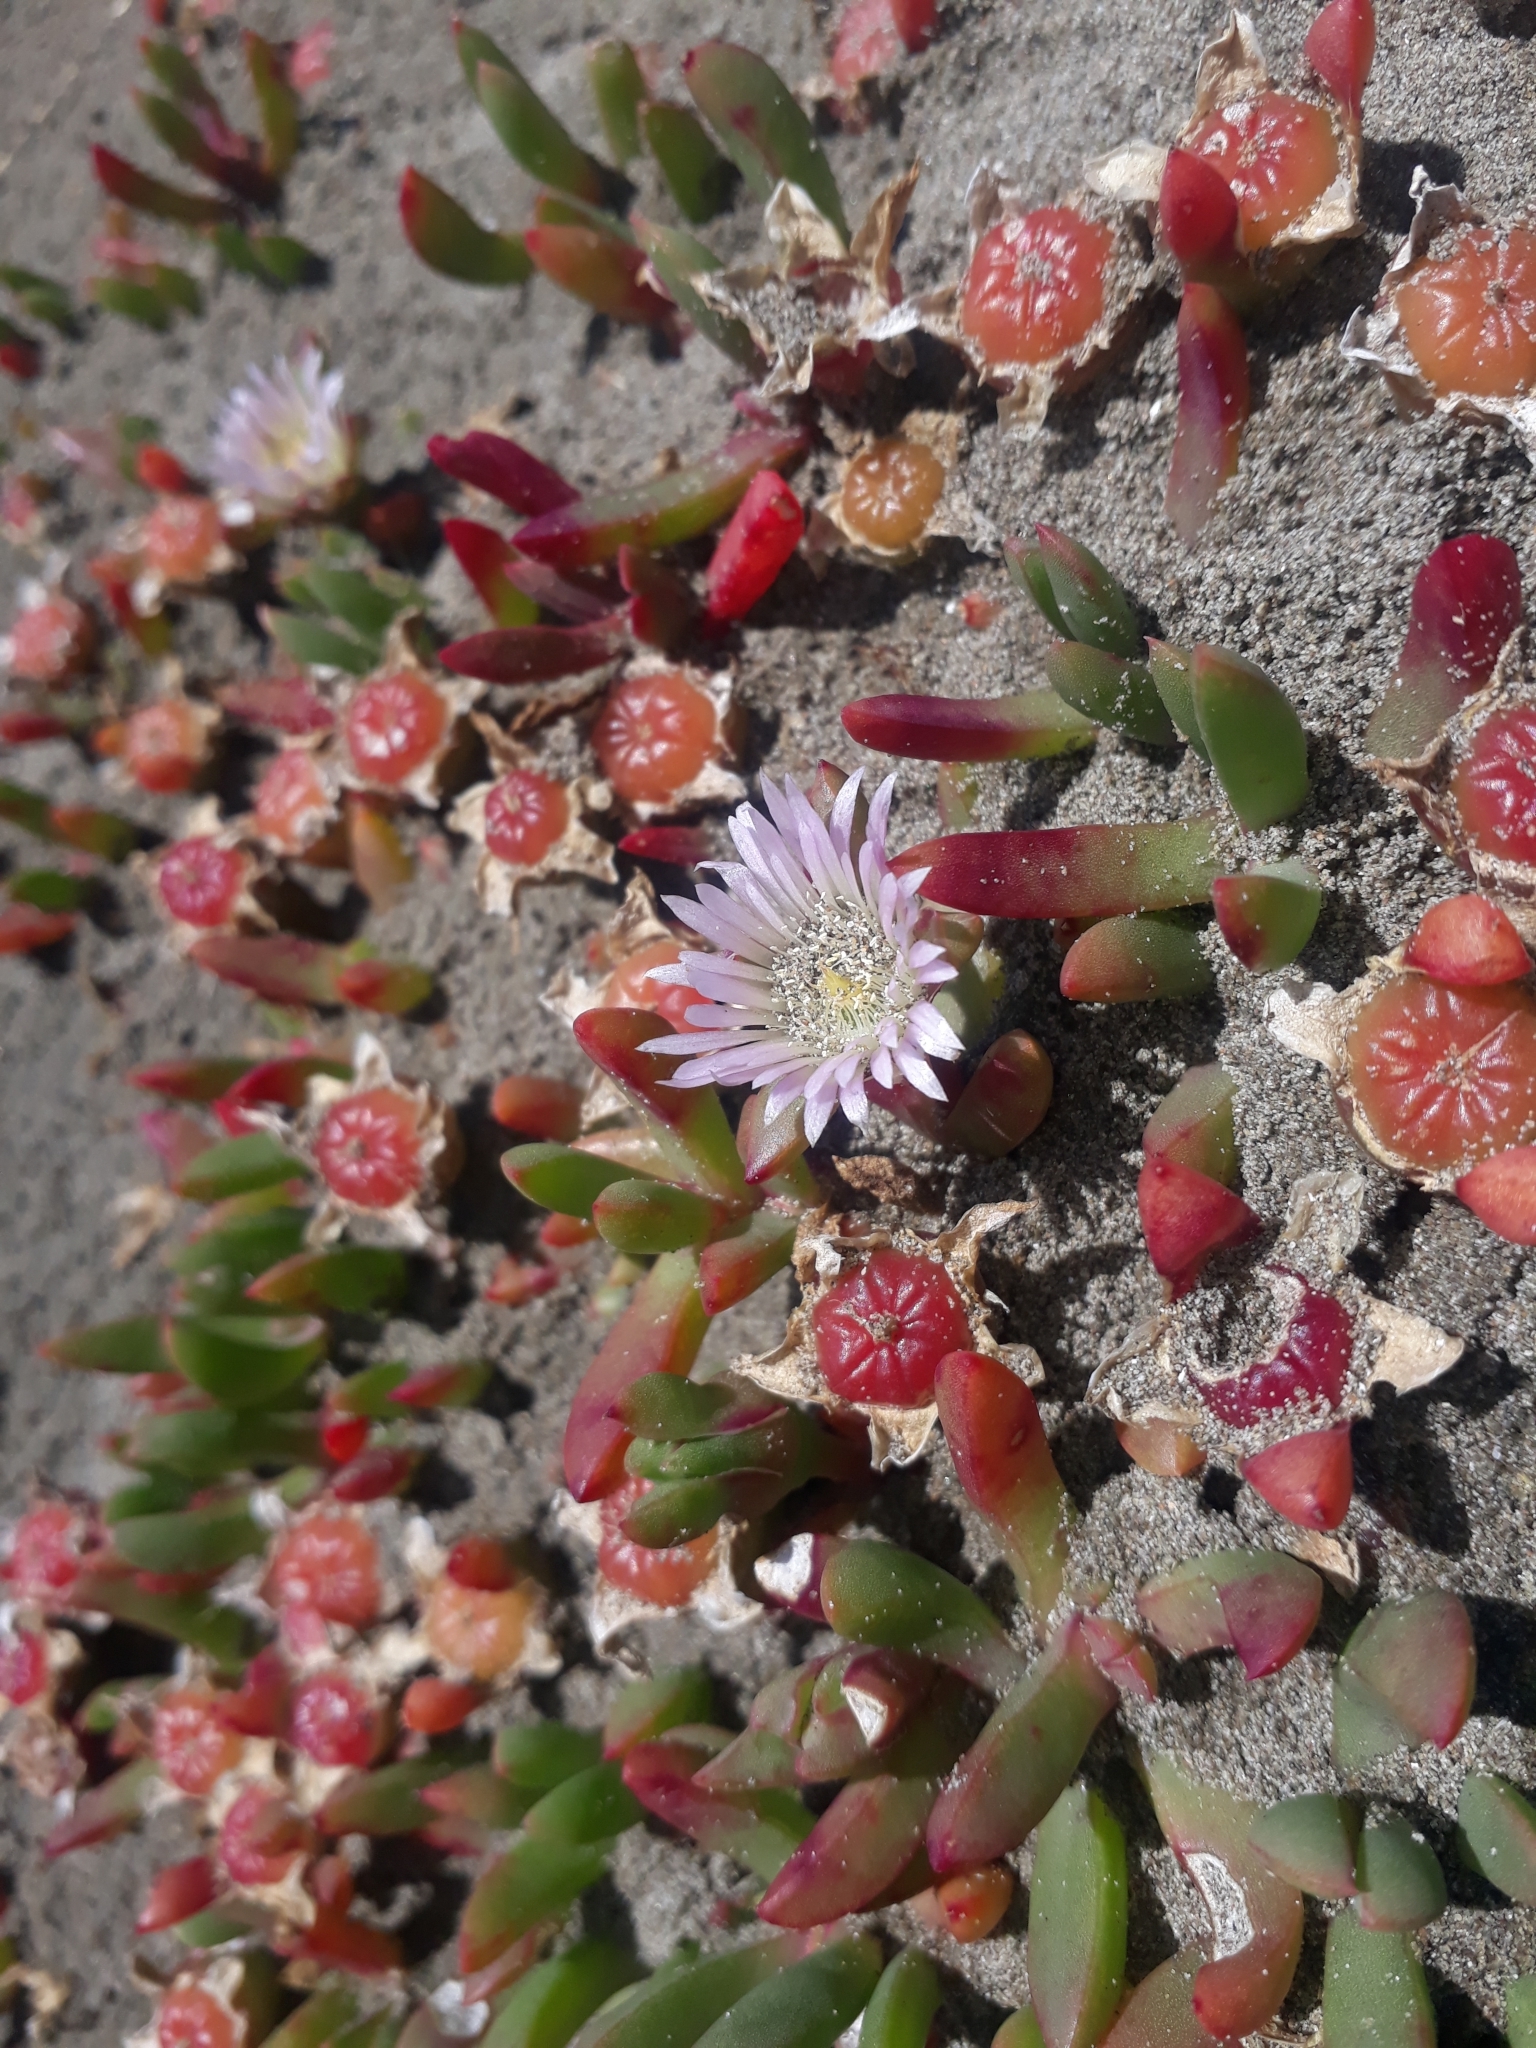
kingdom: Plantae
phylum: Tracheophyta
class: Magnoliopsida
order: Caryophyllales
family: Aizoaceae
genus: Disphyma
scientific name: Disphyma australe
